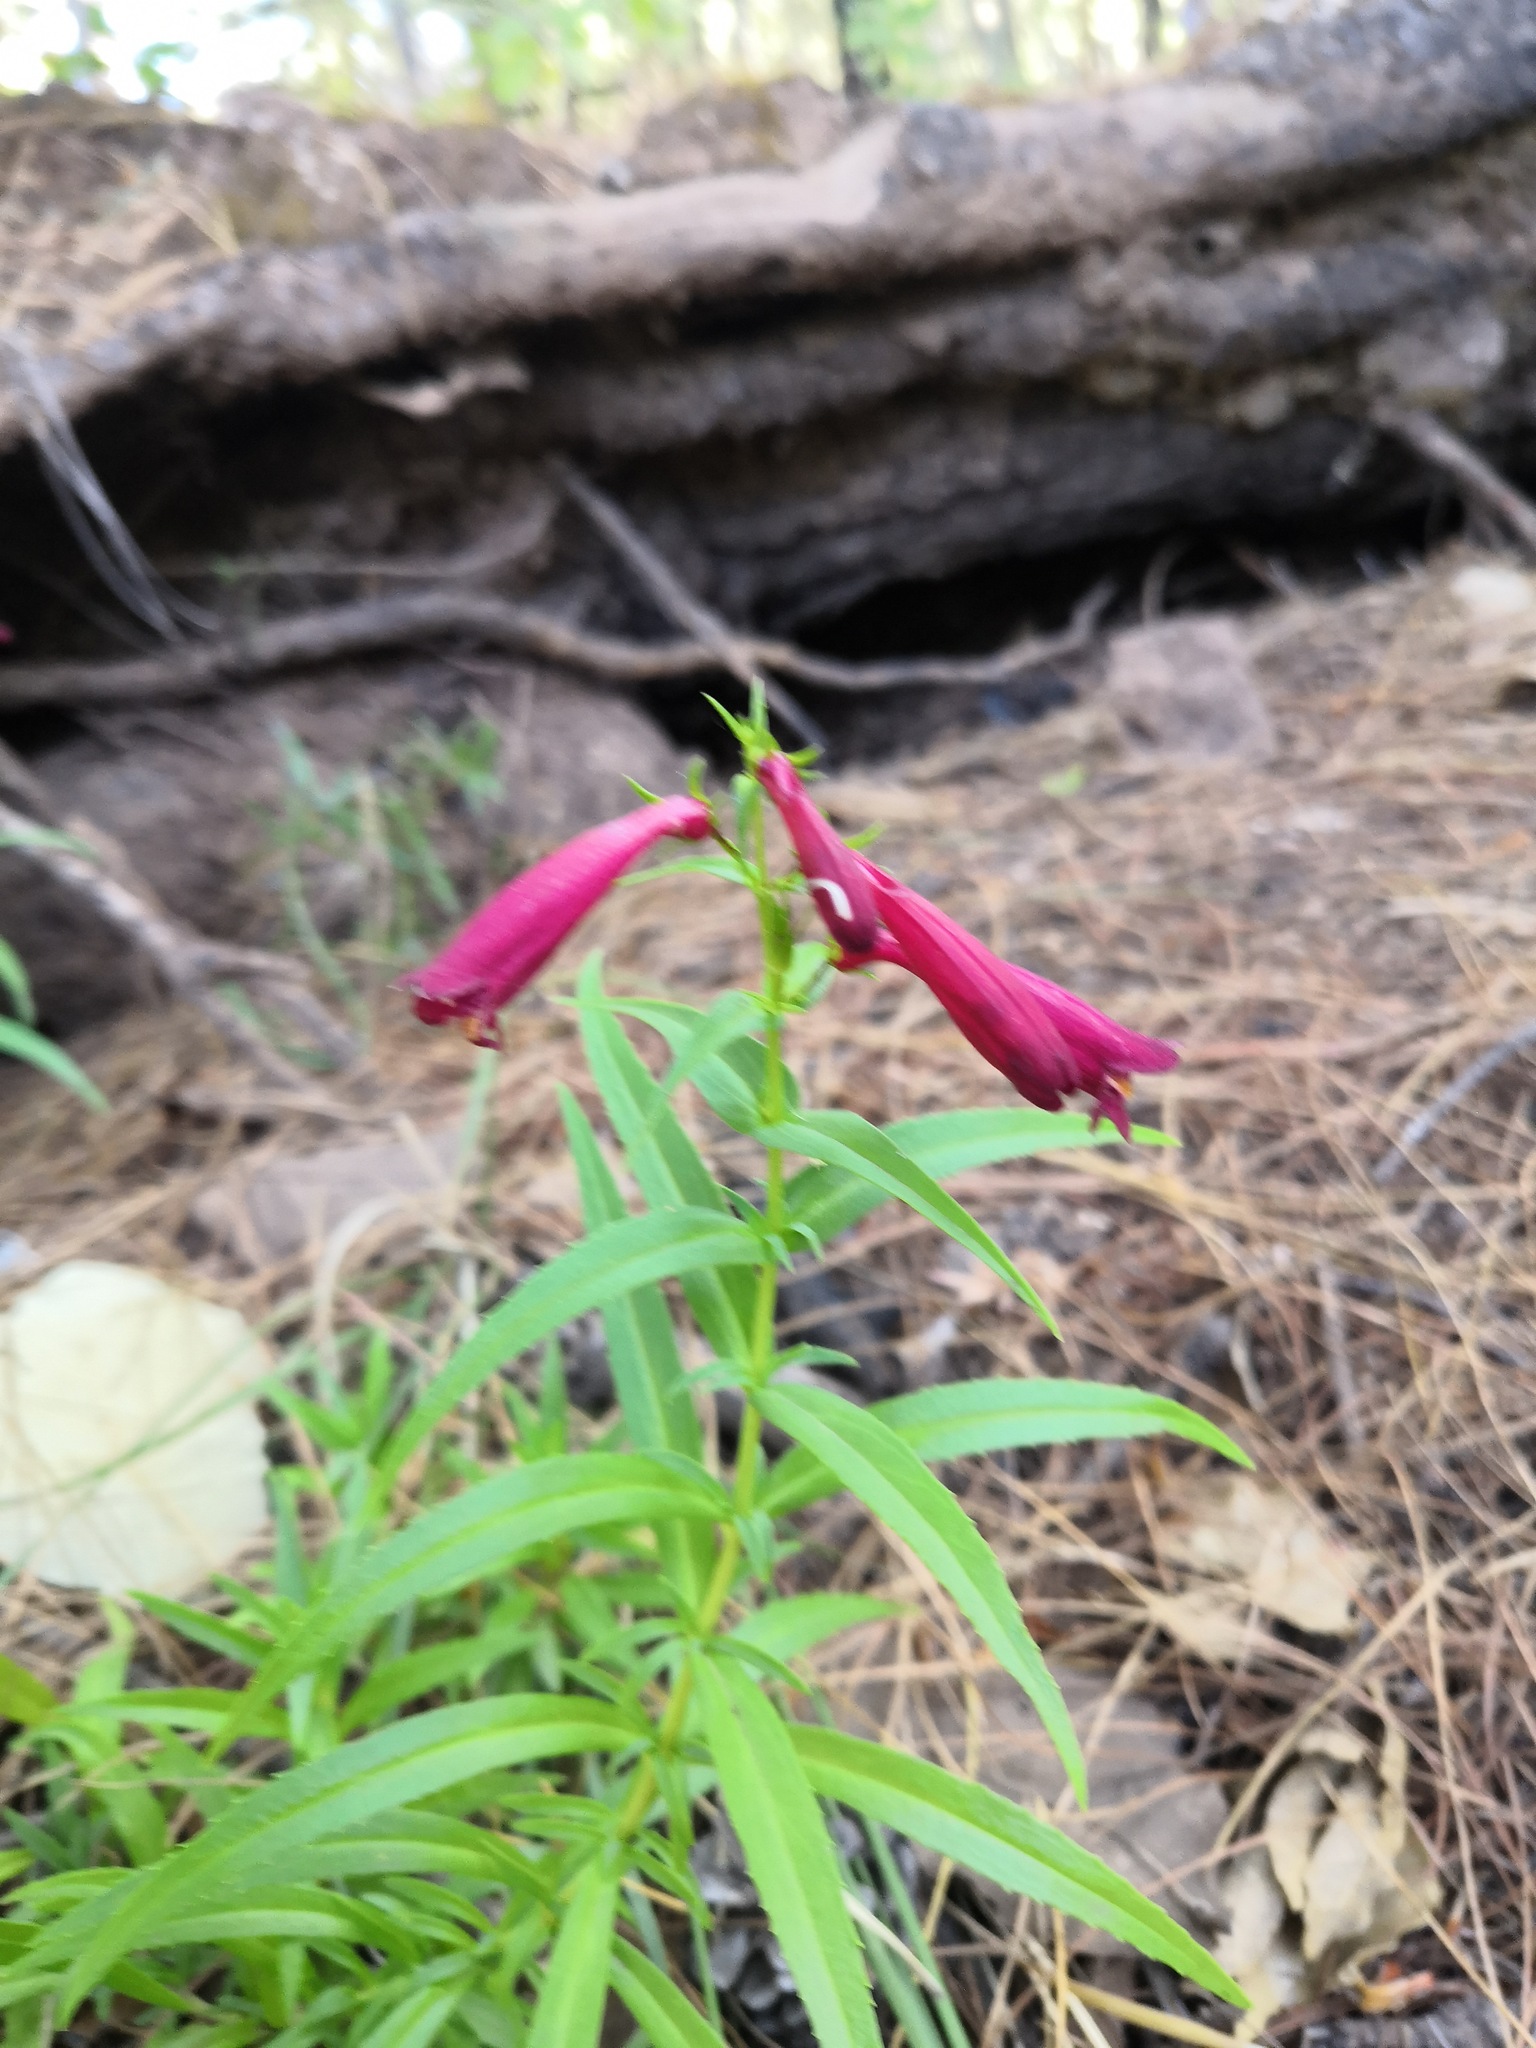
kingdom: Plantae
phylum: Tracheophyta
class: Magnoliopsida
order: Lamiales
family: Plantaginaceae
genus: Penstemon
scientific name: Penstemon roseus
